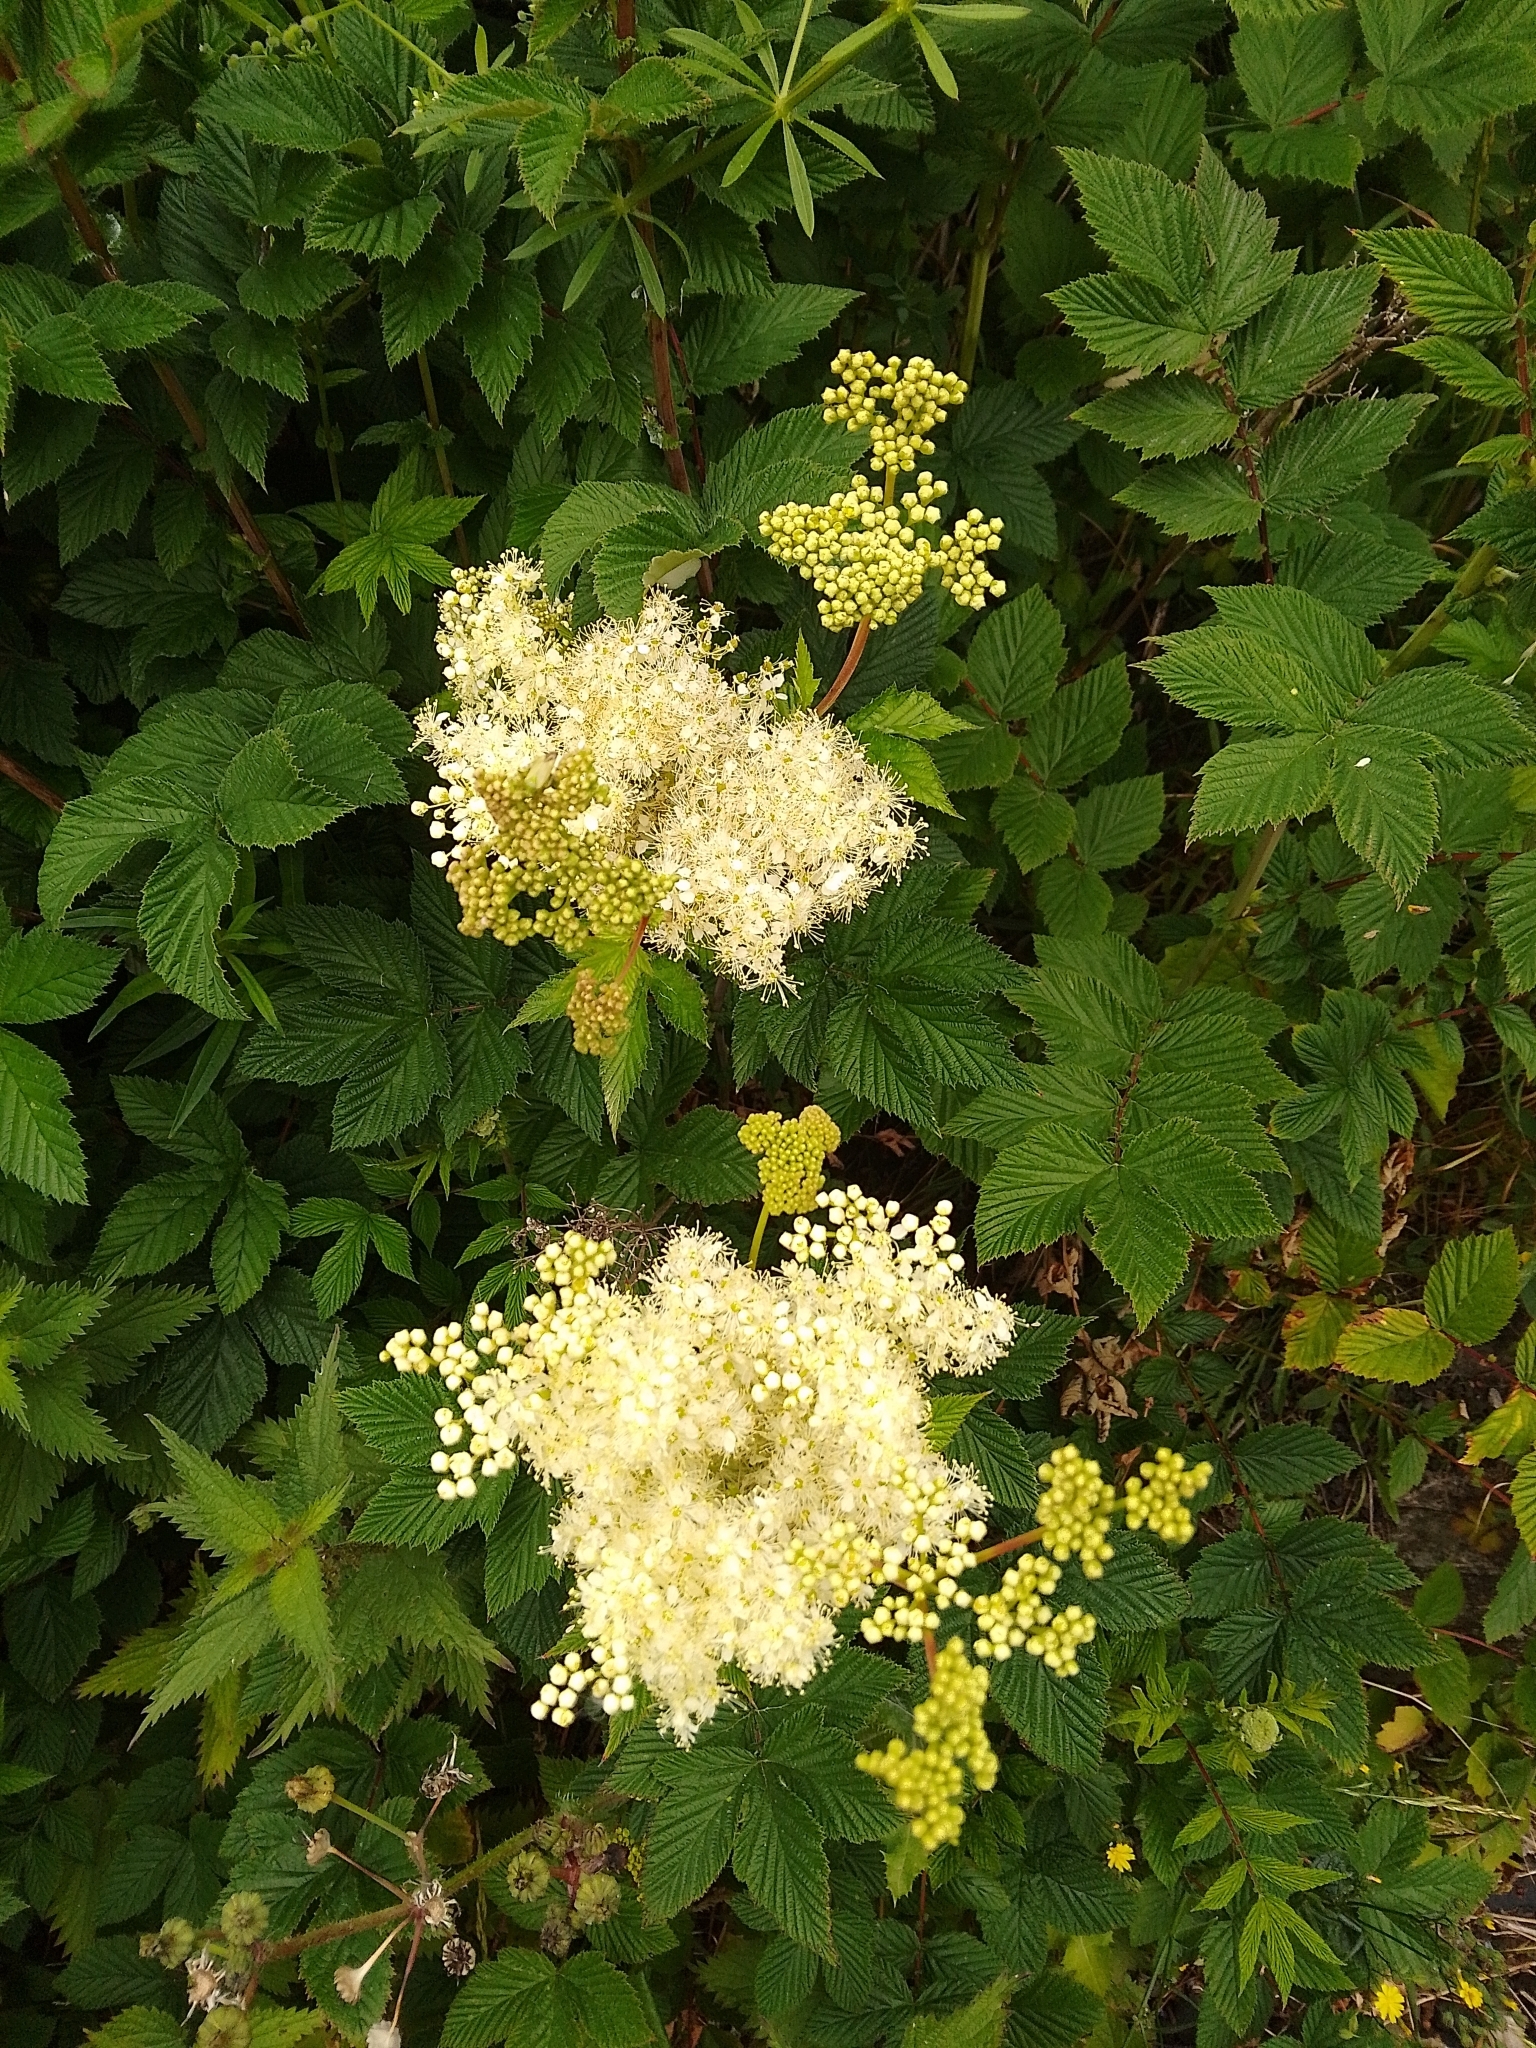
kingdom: Plantae
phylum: Tracheophyta
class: Magnoliopsida
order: Rosales
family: Rosaceae
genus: Filipendula
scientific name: Filipendula ulmaria
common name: Meadowsweet
